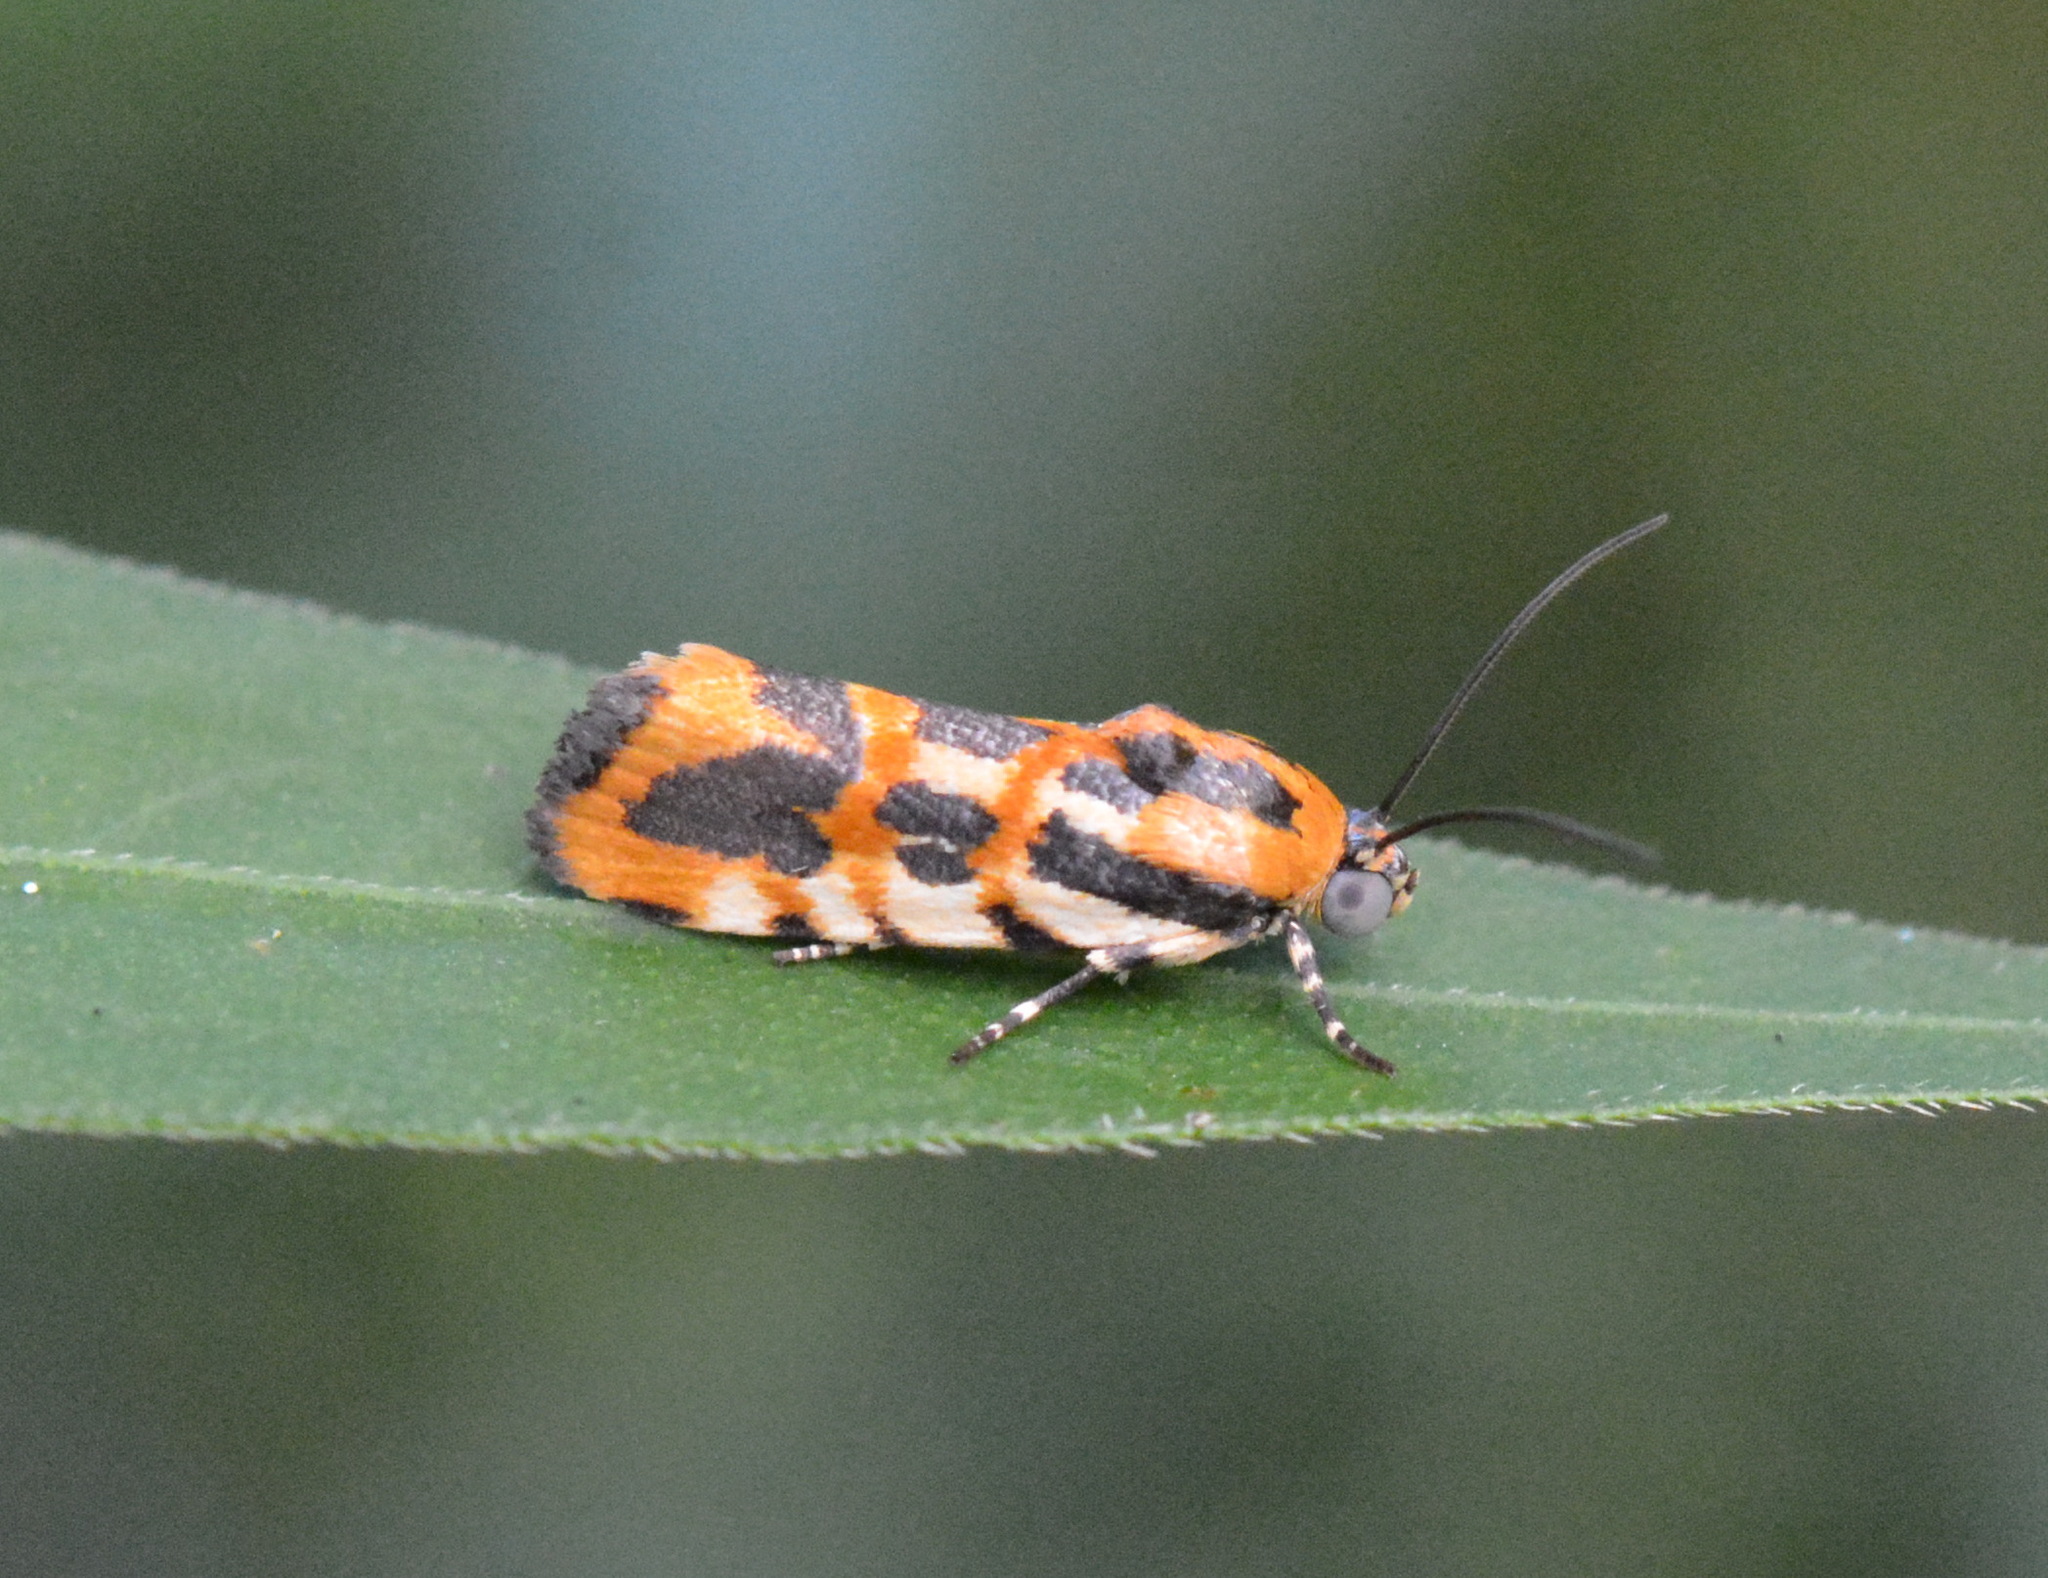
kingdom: Animalia
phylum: Arthropoda
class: Insecta
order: Lepidoptera
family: Noctuidae
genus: Acontia
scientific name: Acontia leo
